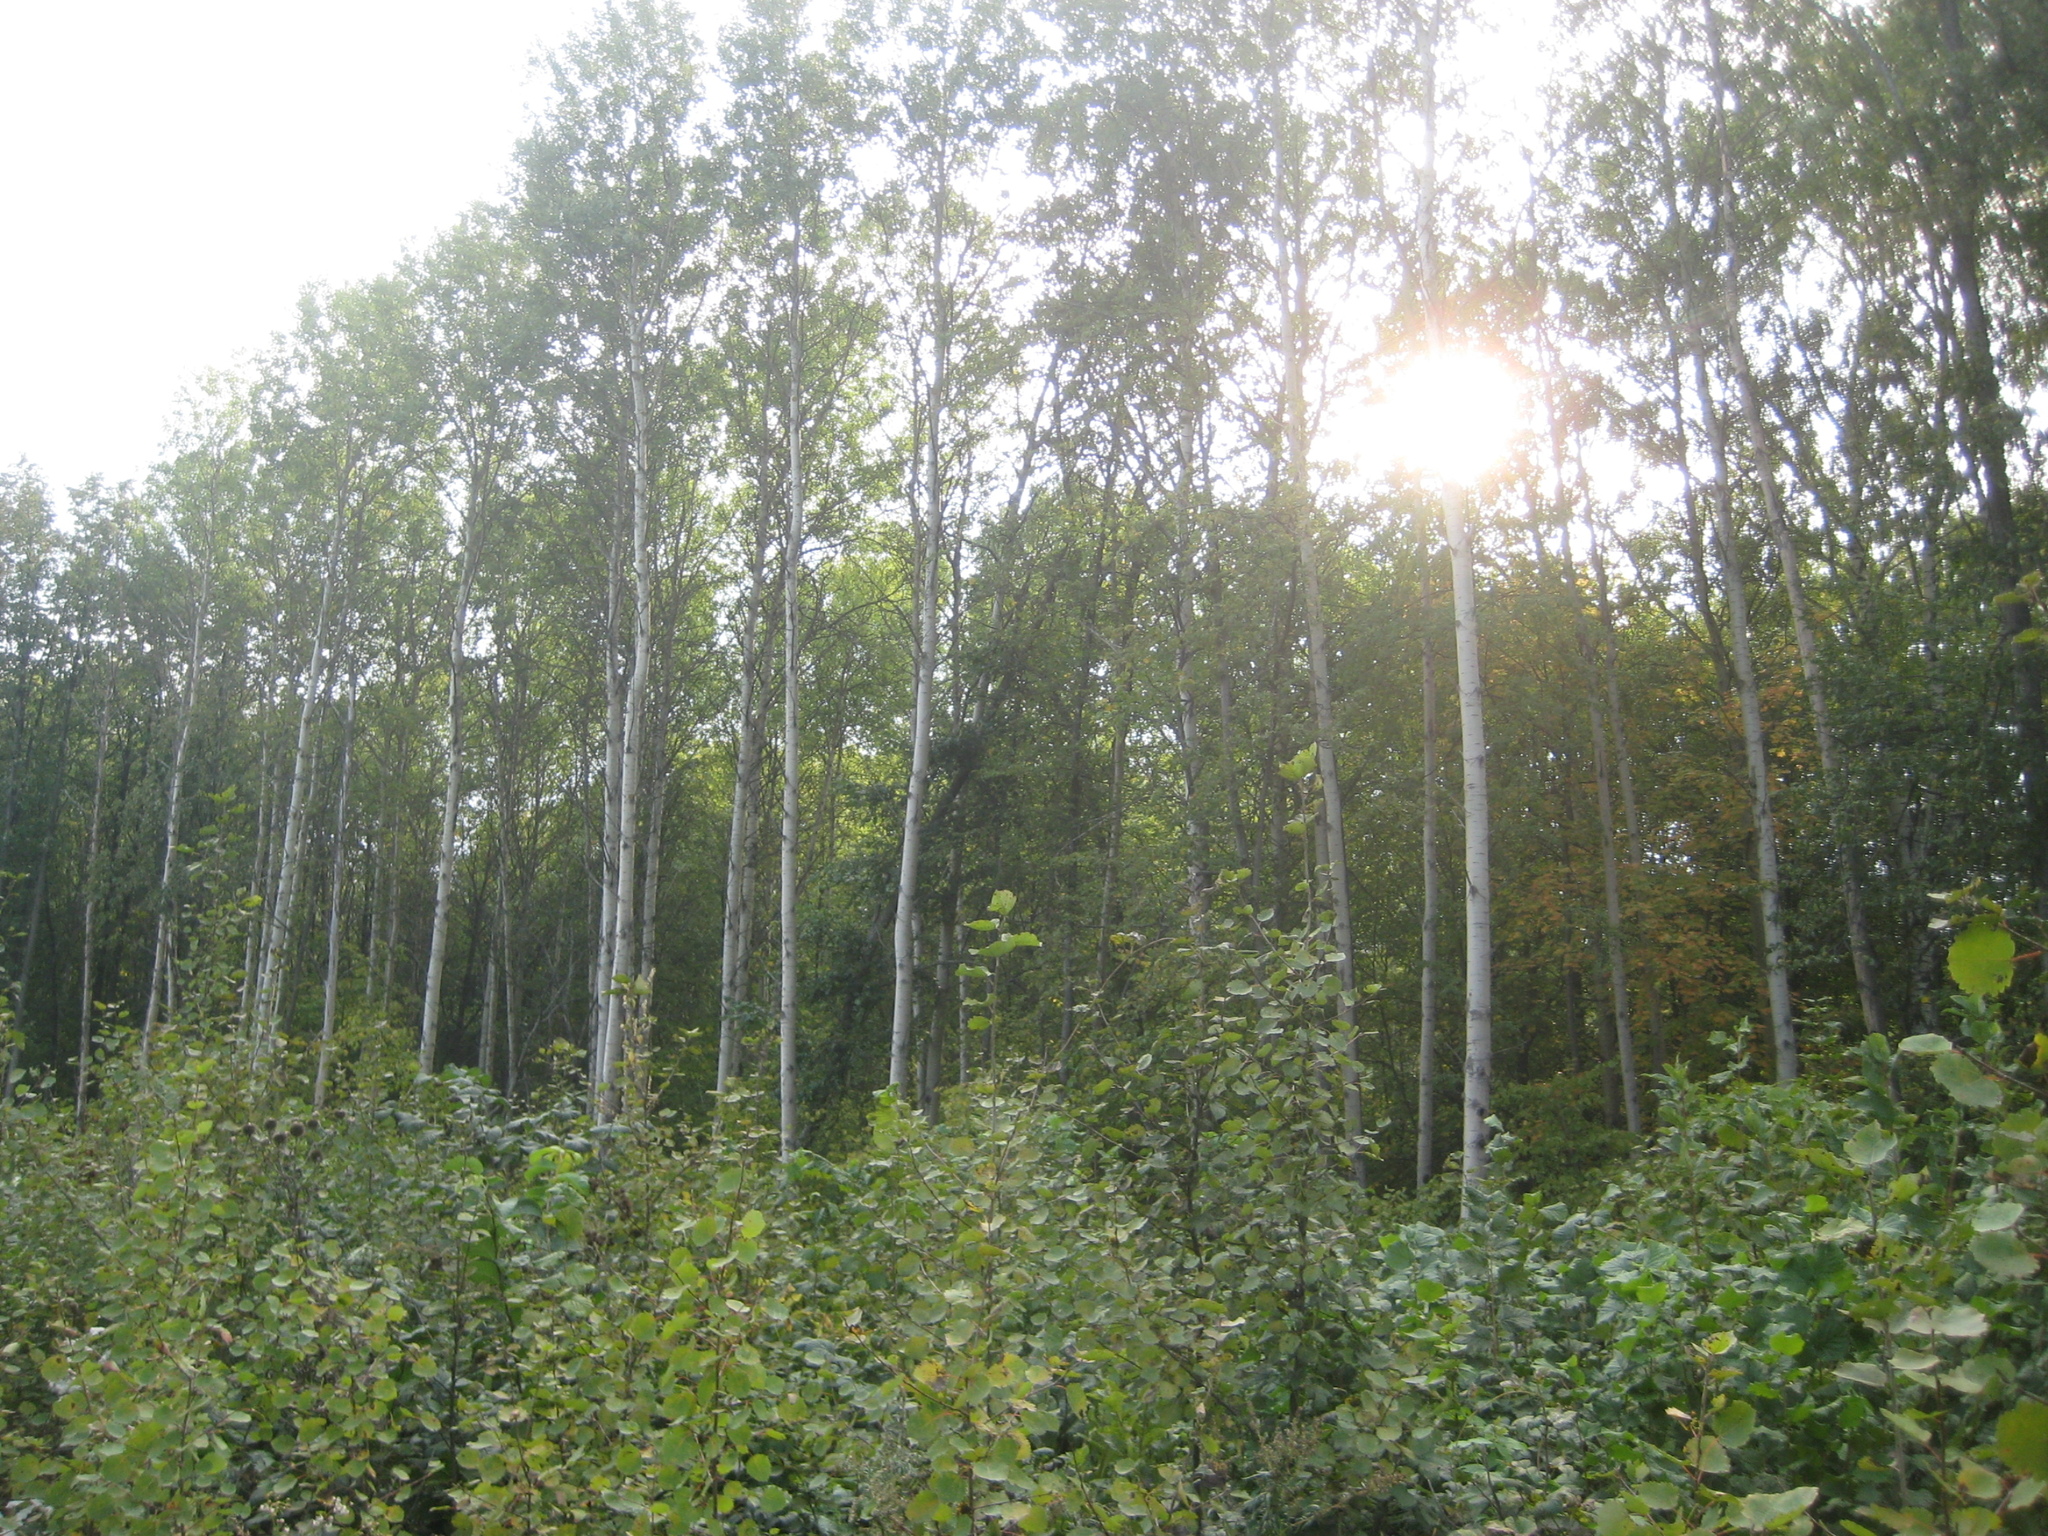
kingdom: Plantae
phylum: Tracheophyta
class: Magnoliopsida
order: Malpighiales
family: Salicaceae
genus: Populus
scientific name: Populus tremula
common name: European aspen
